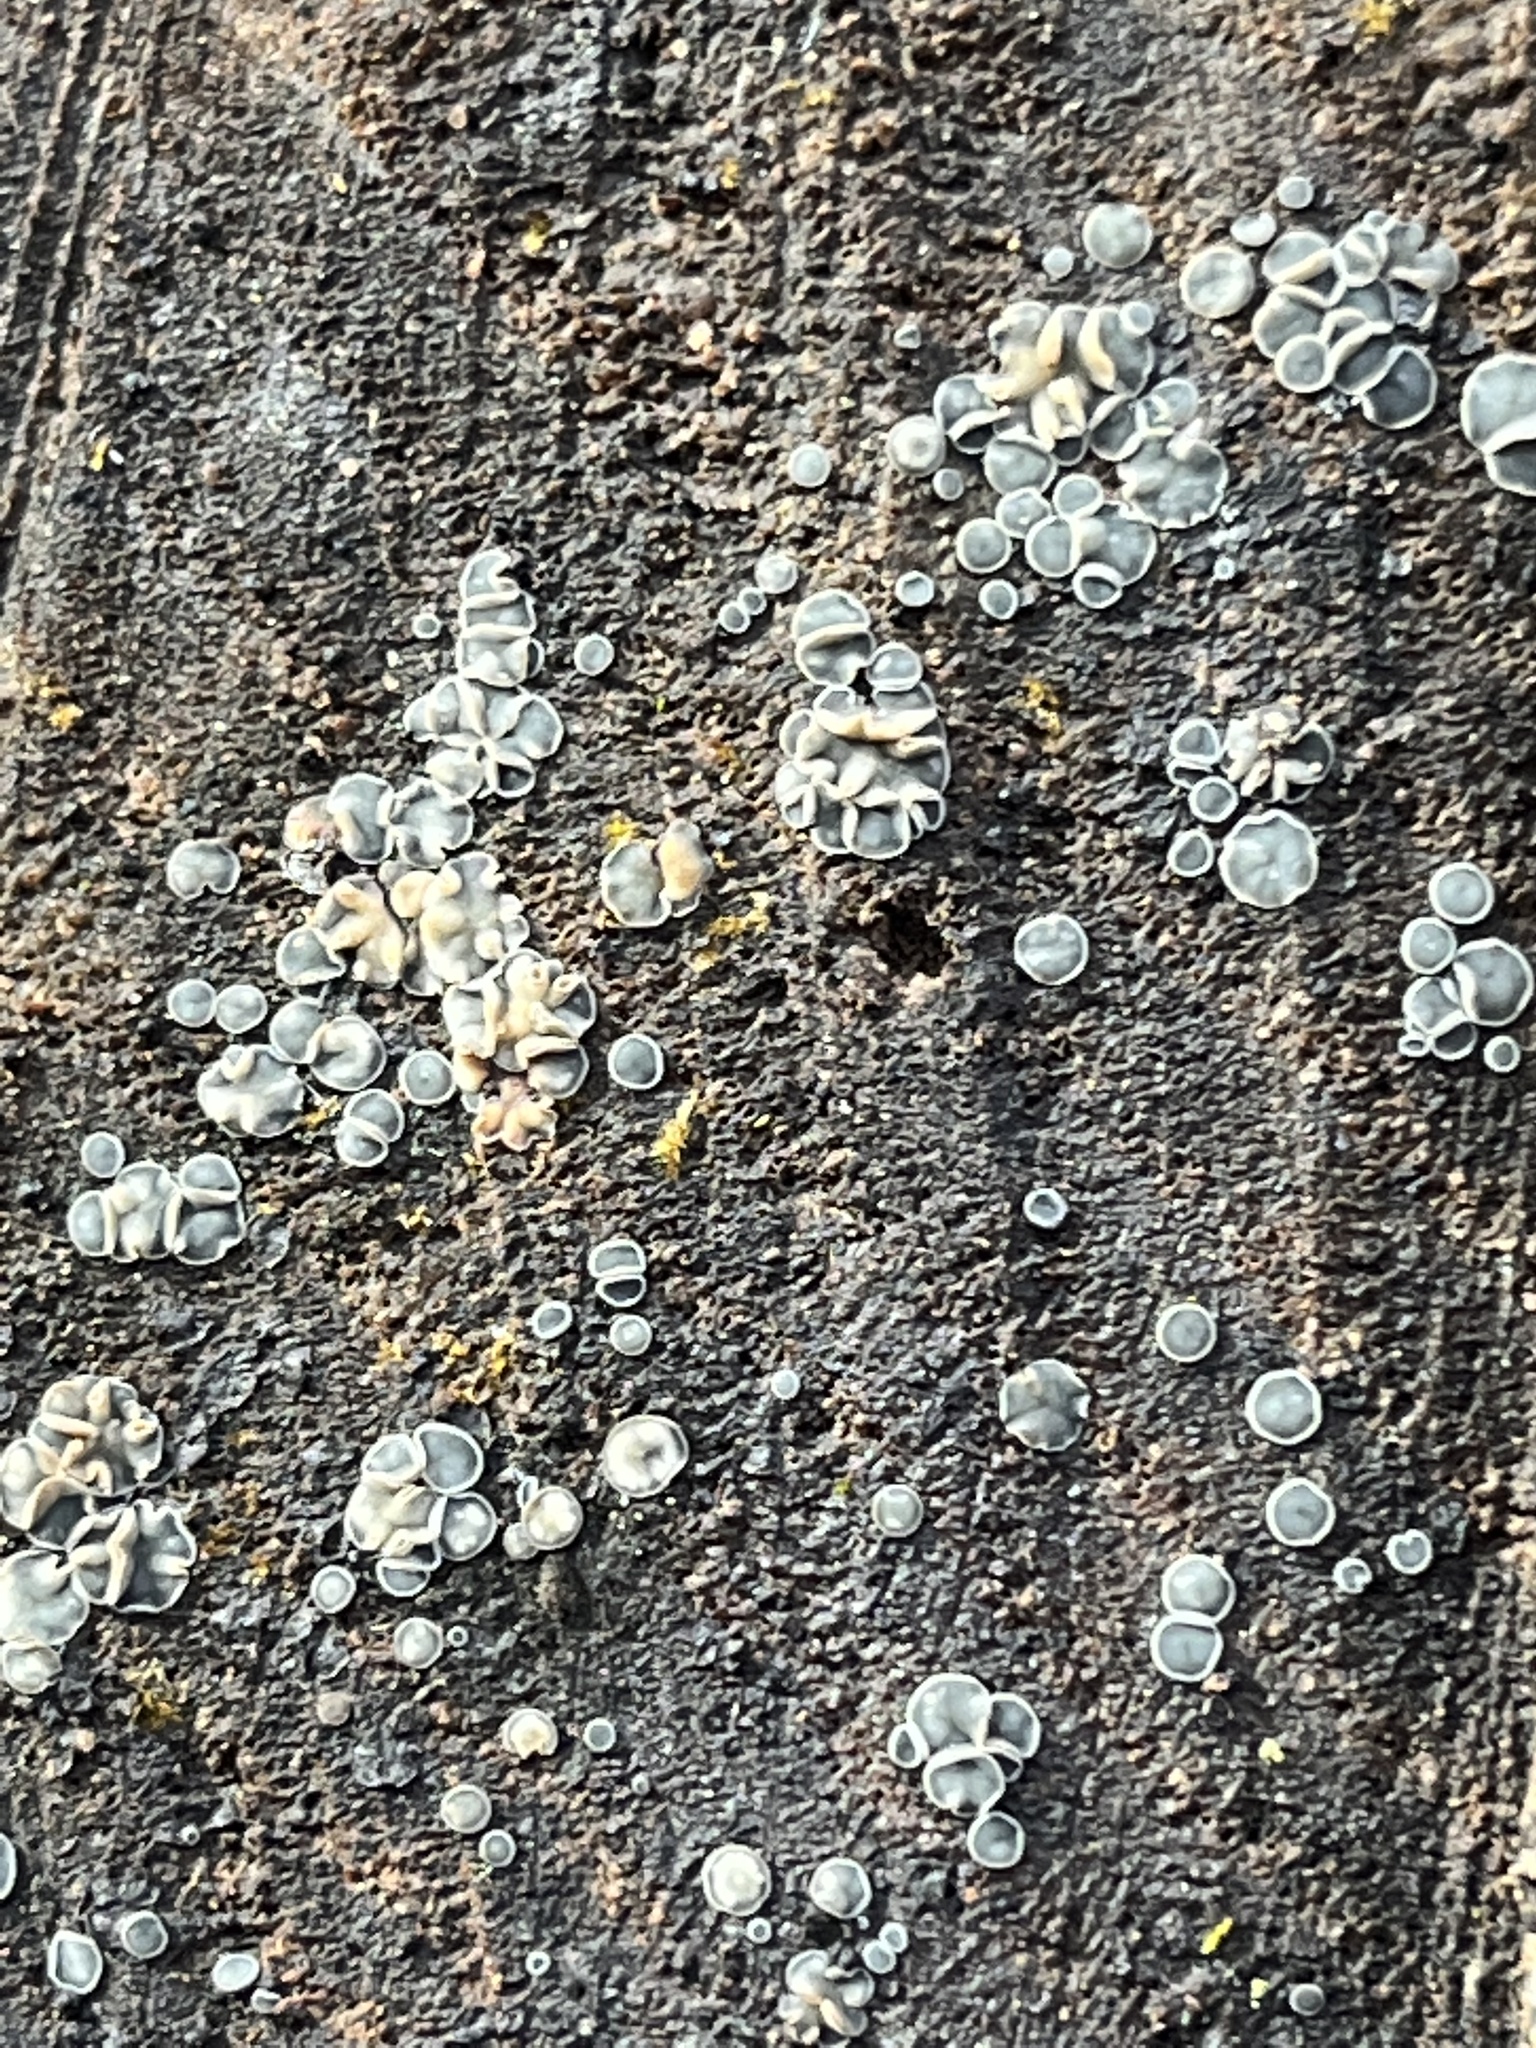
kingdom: Fungi
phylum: Ascomycota
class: Leotiomycetes
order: Helotiales
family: Mollisiaceae
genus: Mollisia
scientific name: Mollisia cinerea
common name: Common grey disco
